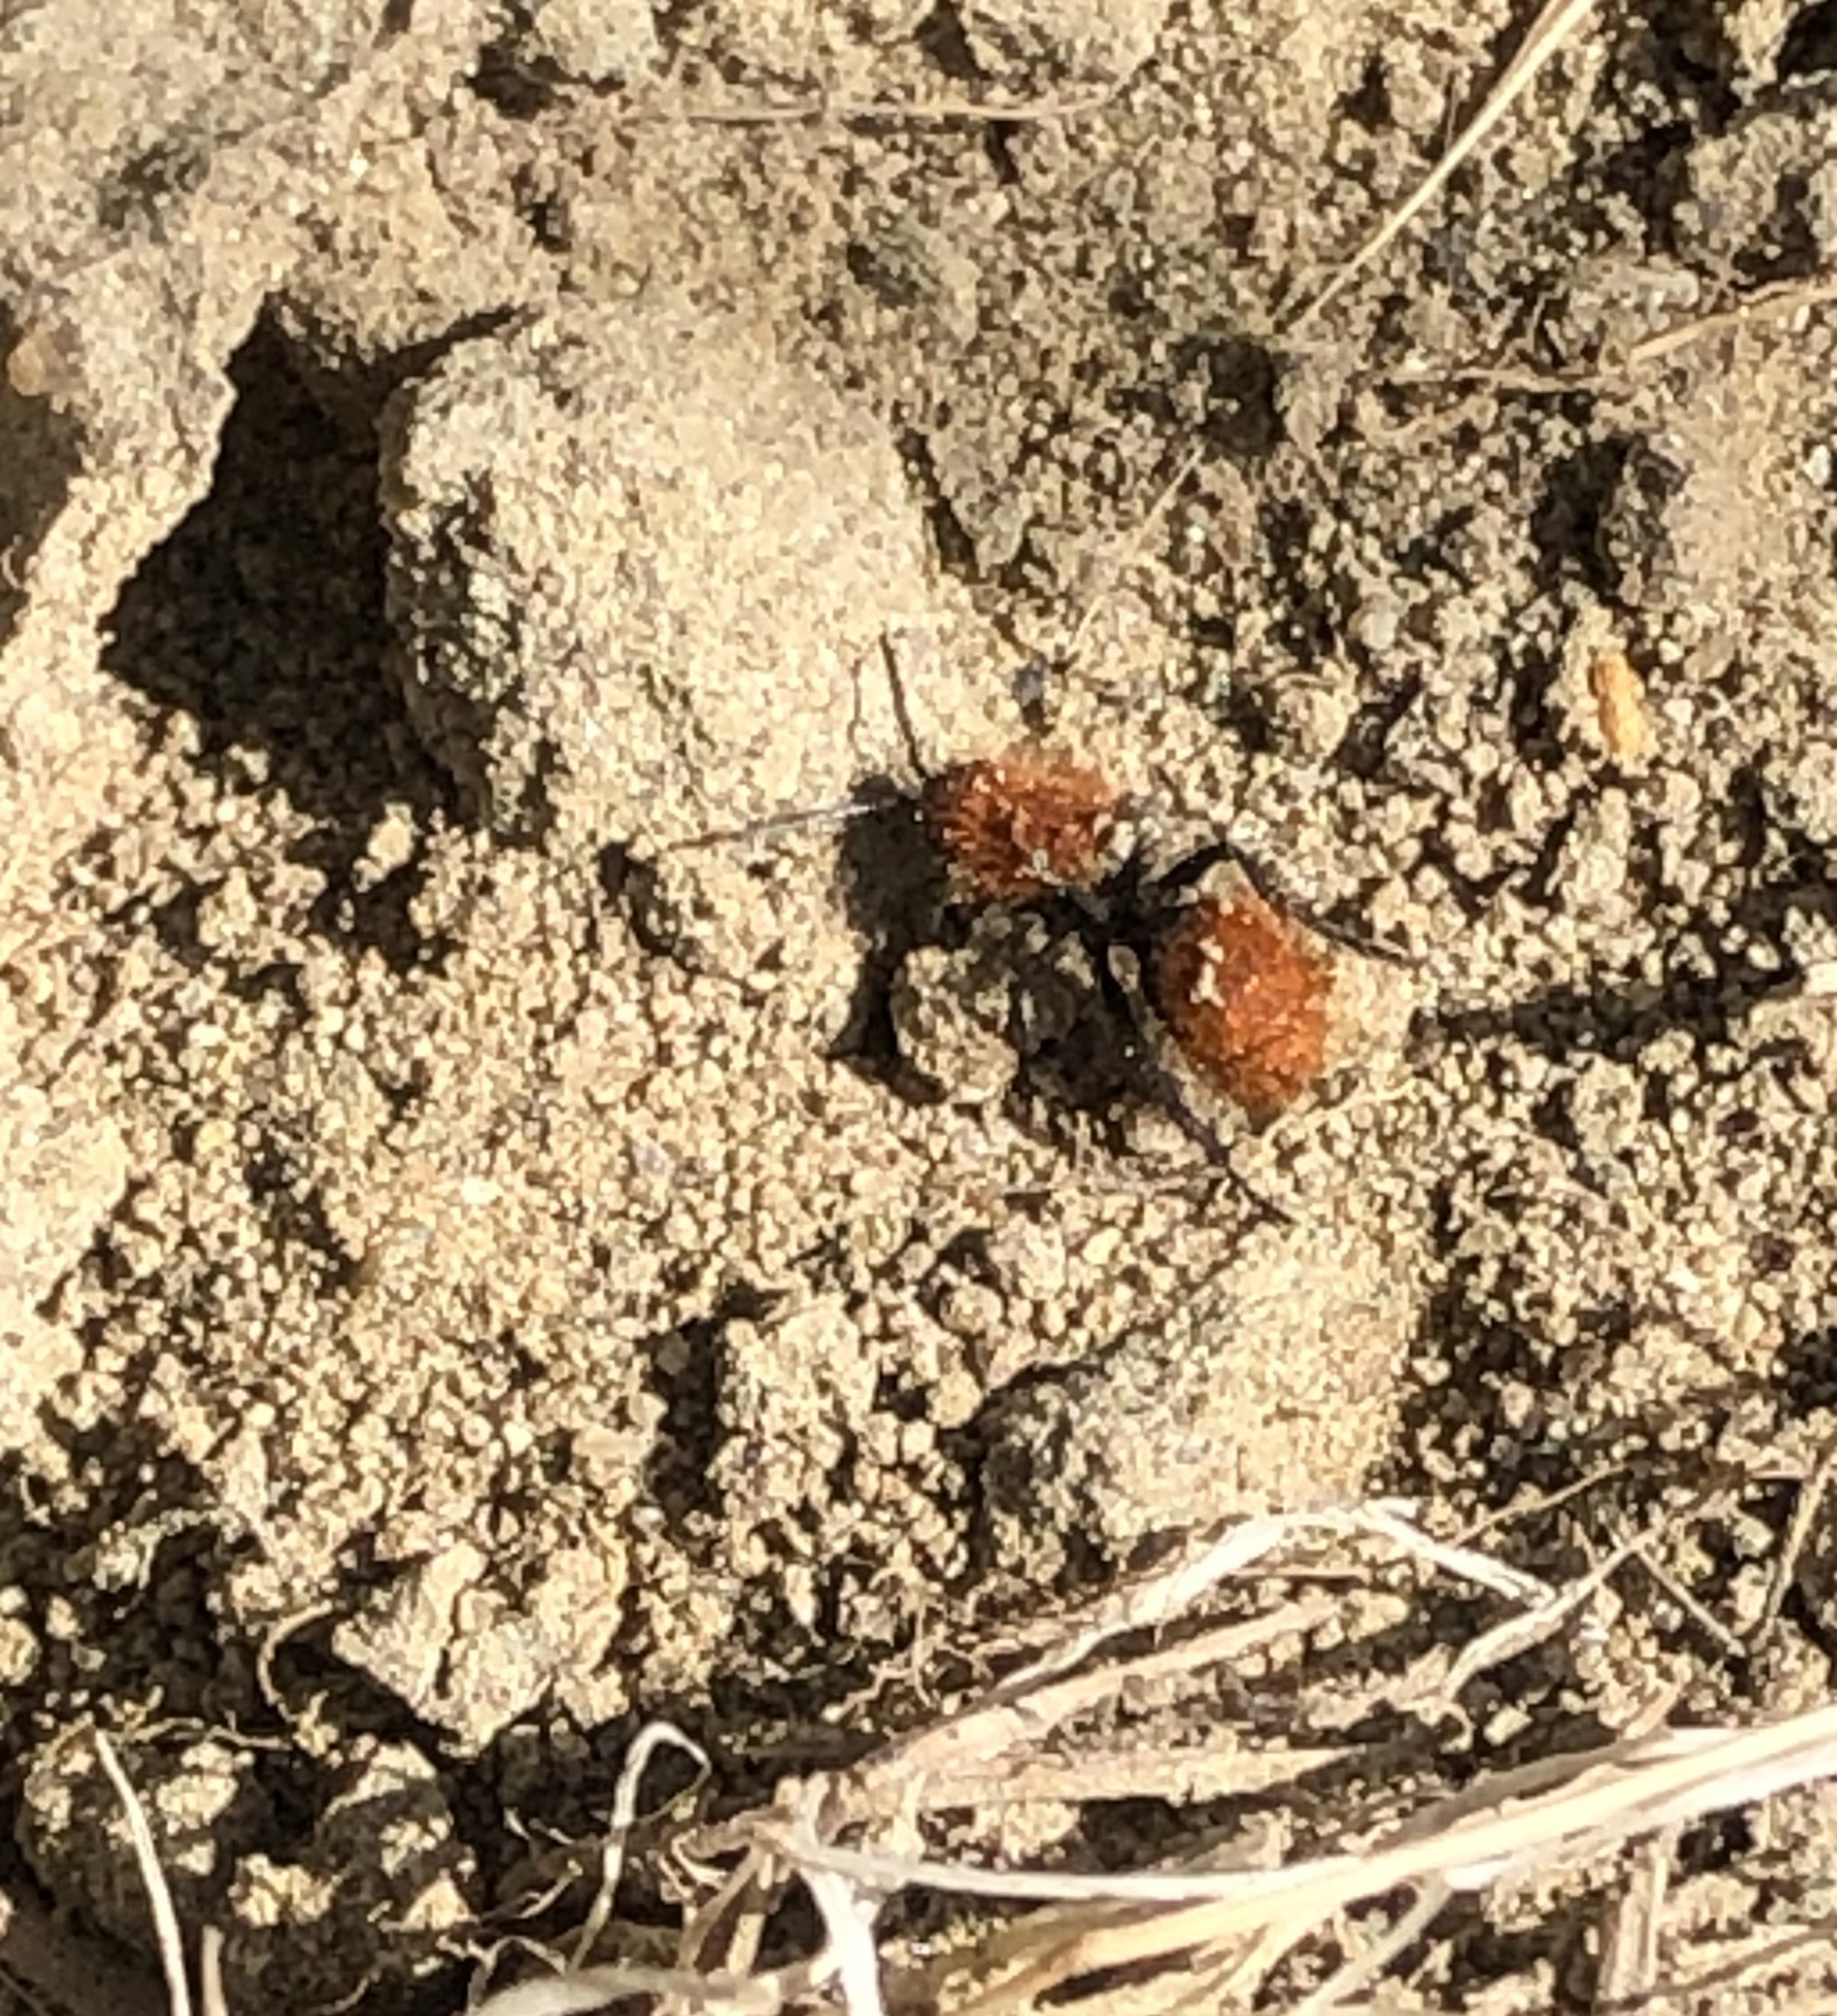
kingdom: Animalia
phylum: Arthropoda
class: Insecta
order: Hymenoptera
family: Mutillidae
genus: Dasymutilla
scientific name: Dasymutilla
